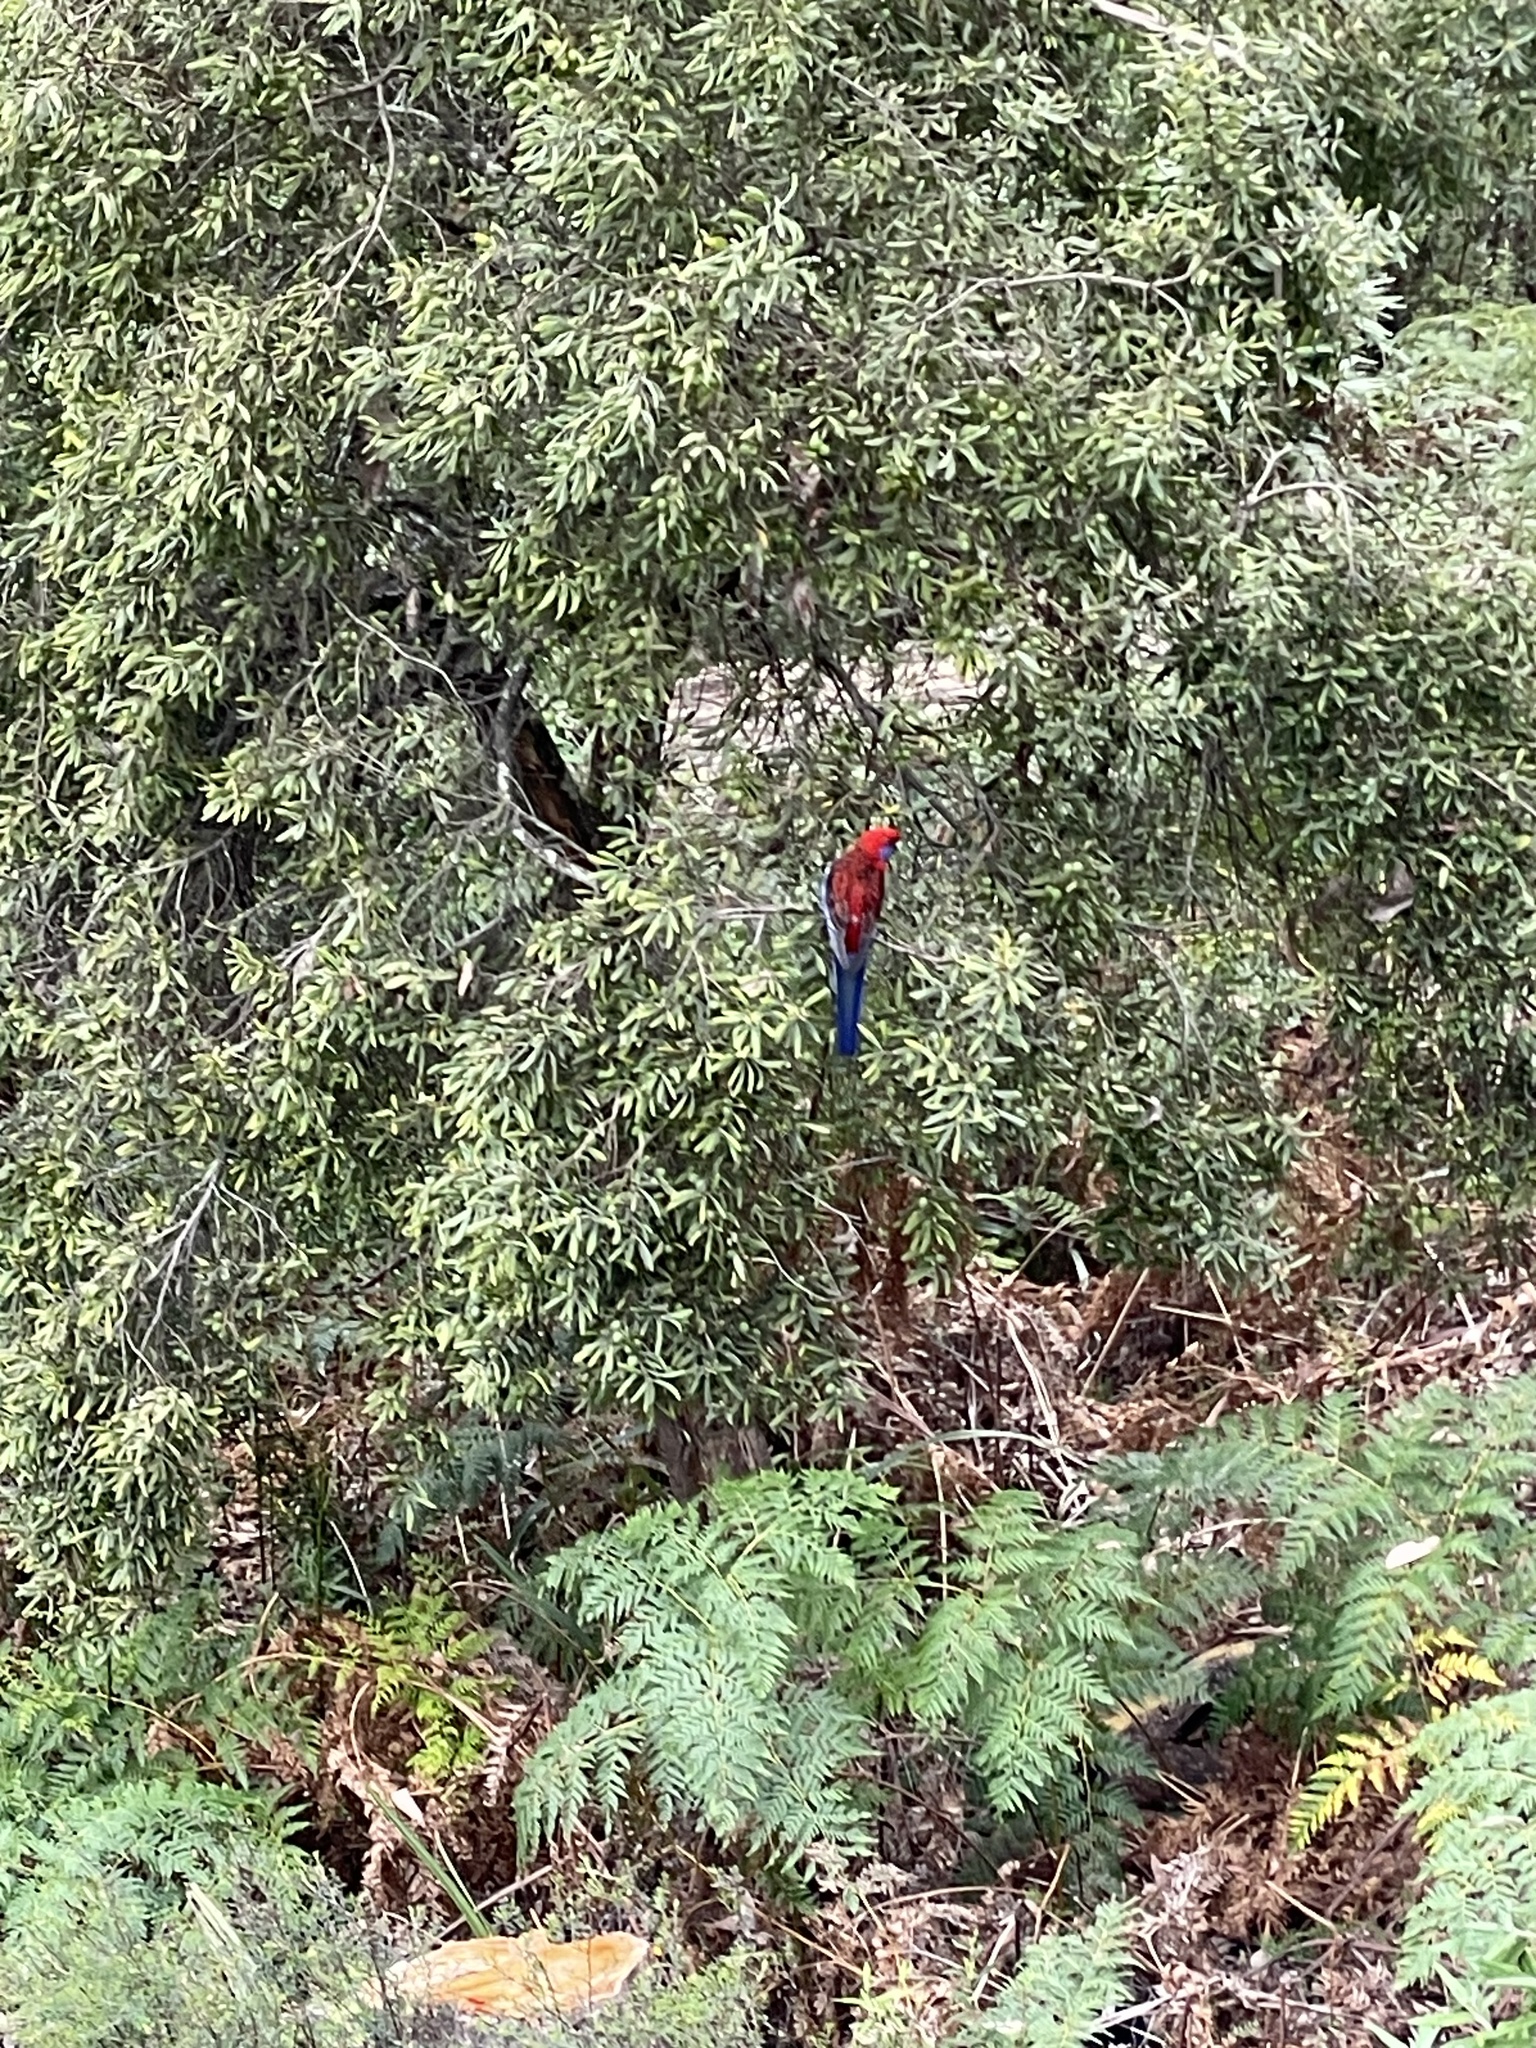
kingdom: Animalia
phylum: Chordata
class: Aves
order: Psittaciformes
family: Psittacidae
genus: Platycercus
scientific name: Platycercus elegans
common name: Crimson rosella
